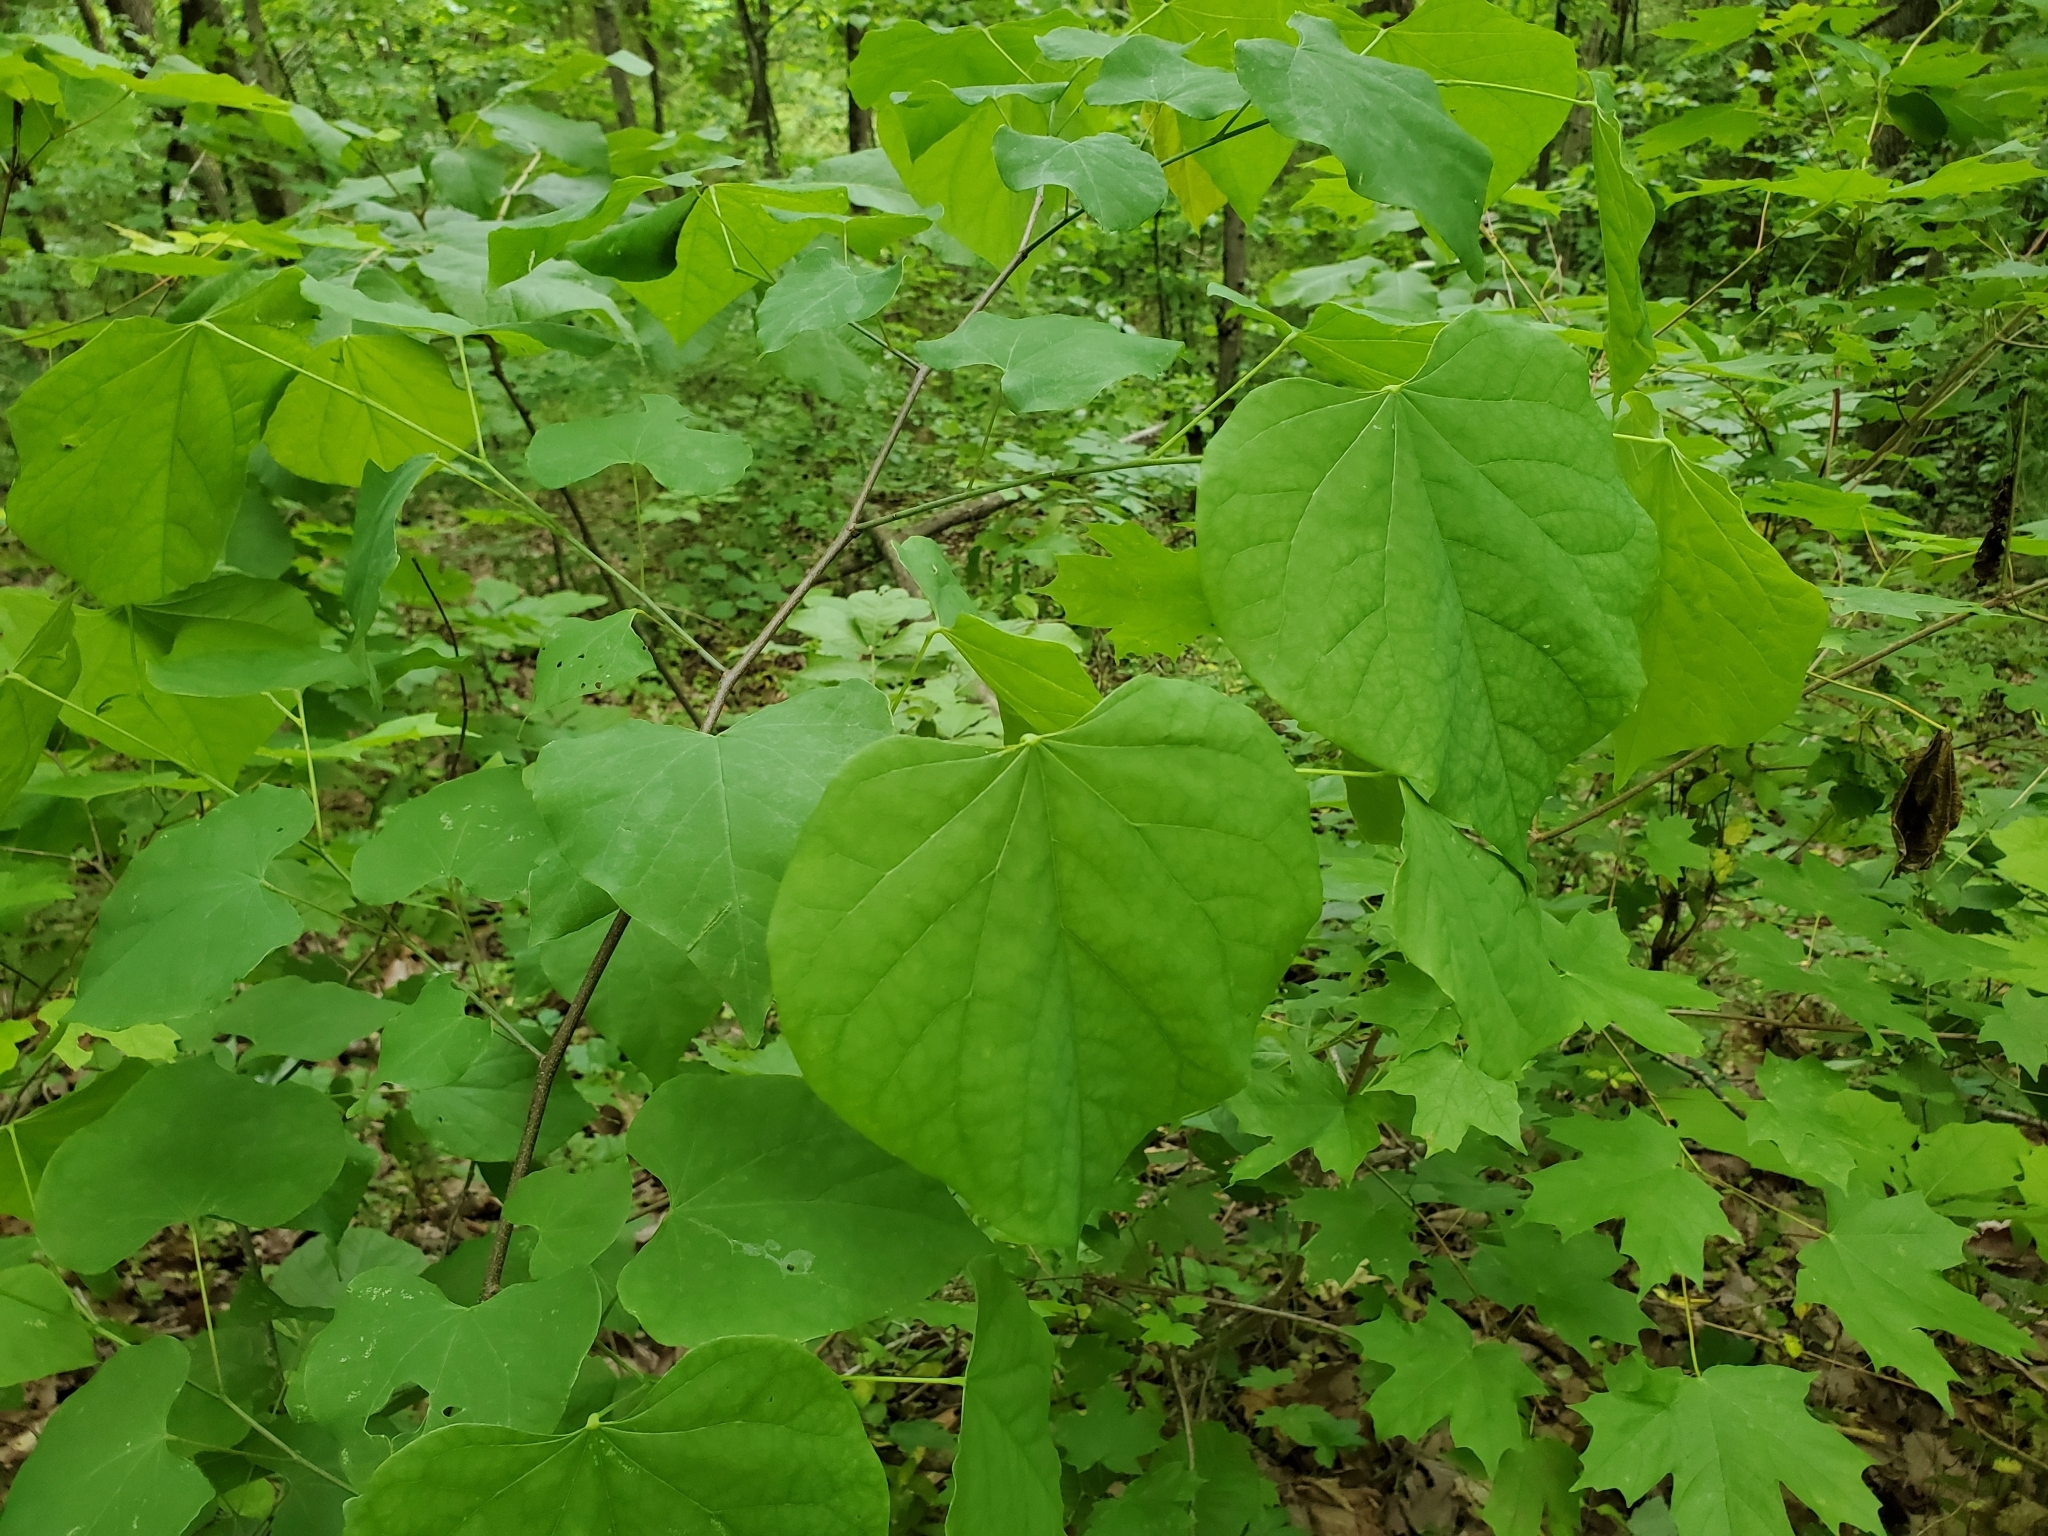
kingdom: Plantae
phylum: Tracheophyta
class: Magnoliopsida
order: Fabales
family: Fabaceae
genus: Cercis
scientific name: Cercis canadensis
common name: Eastern redbud
